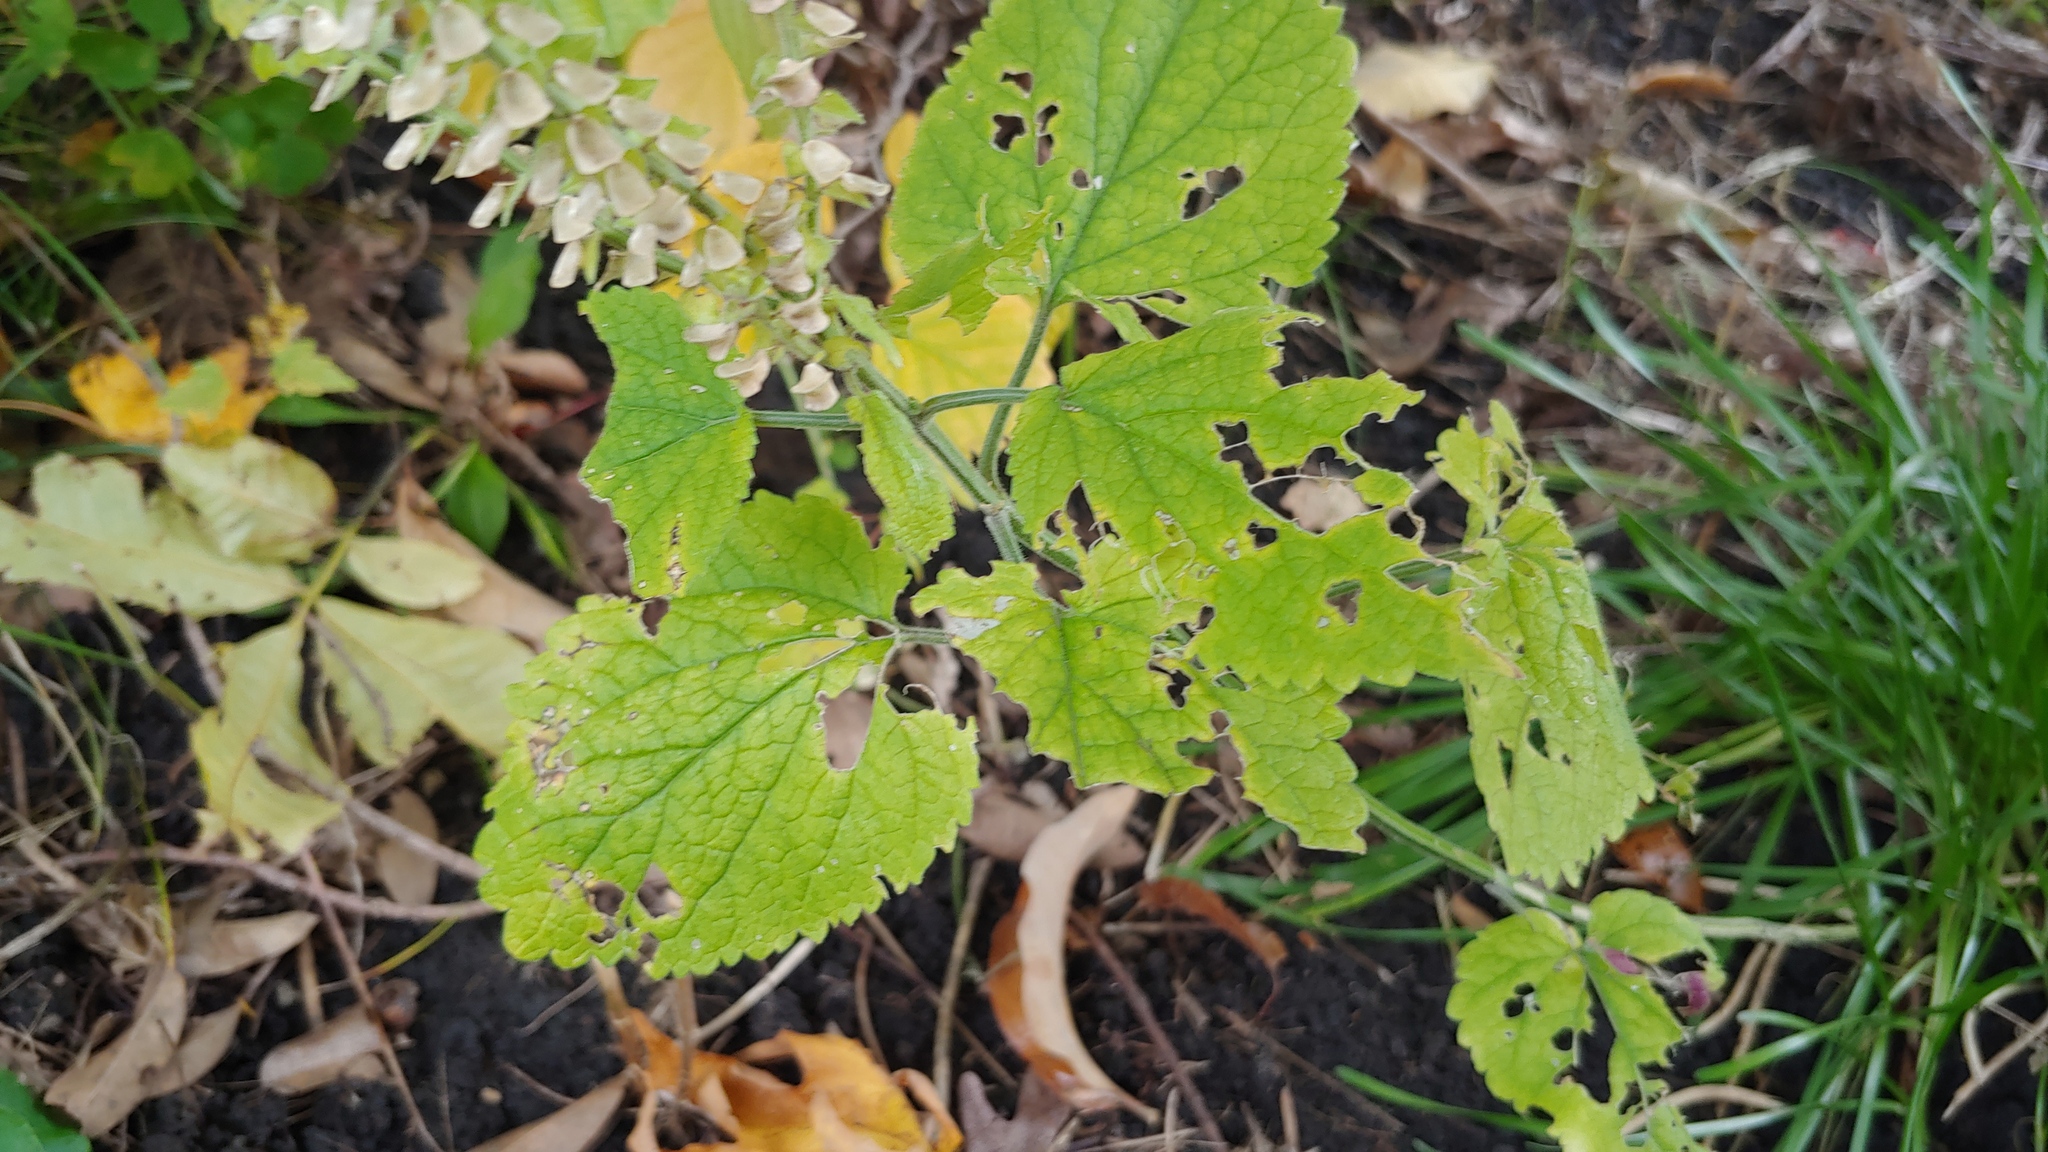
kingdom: Plantae
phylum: Tracheophyta
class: Magnoliopsida
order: Lamiales
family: Lamiaceae
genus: Scutellaria
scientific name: Scutellaria ovata
